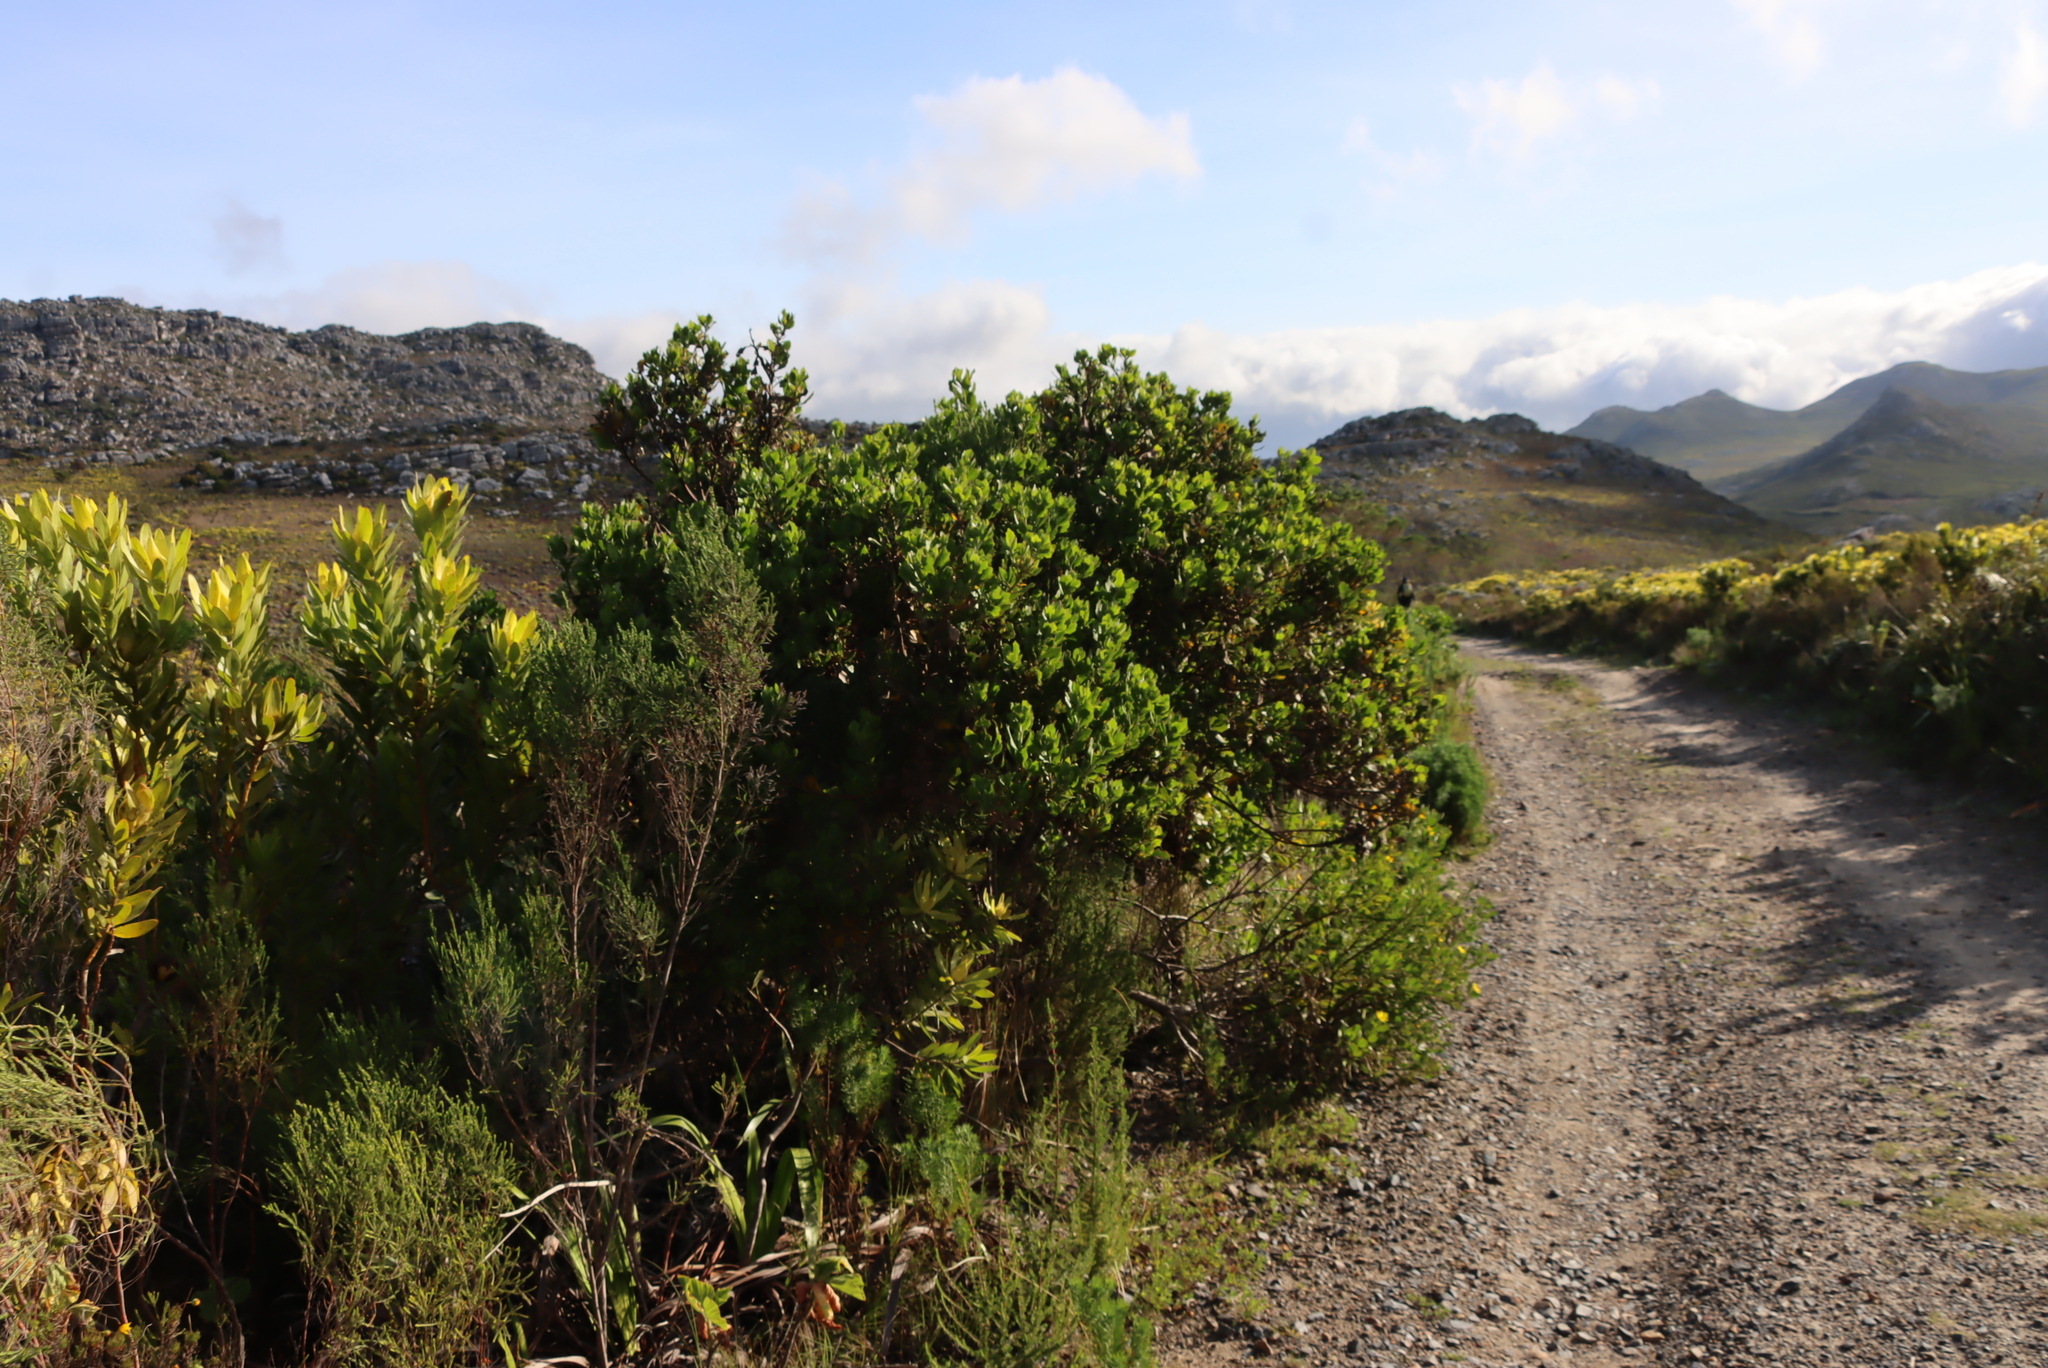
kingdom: Plantae
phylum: Tracheophyta
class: Magnoliopsida
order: Proteales
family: Proteaceae
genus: Leucospermum
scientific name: Leucospermum conocarpodendron
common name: Tree pincushion
